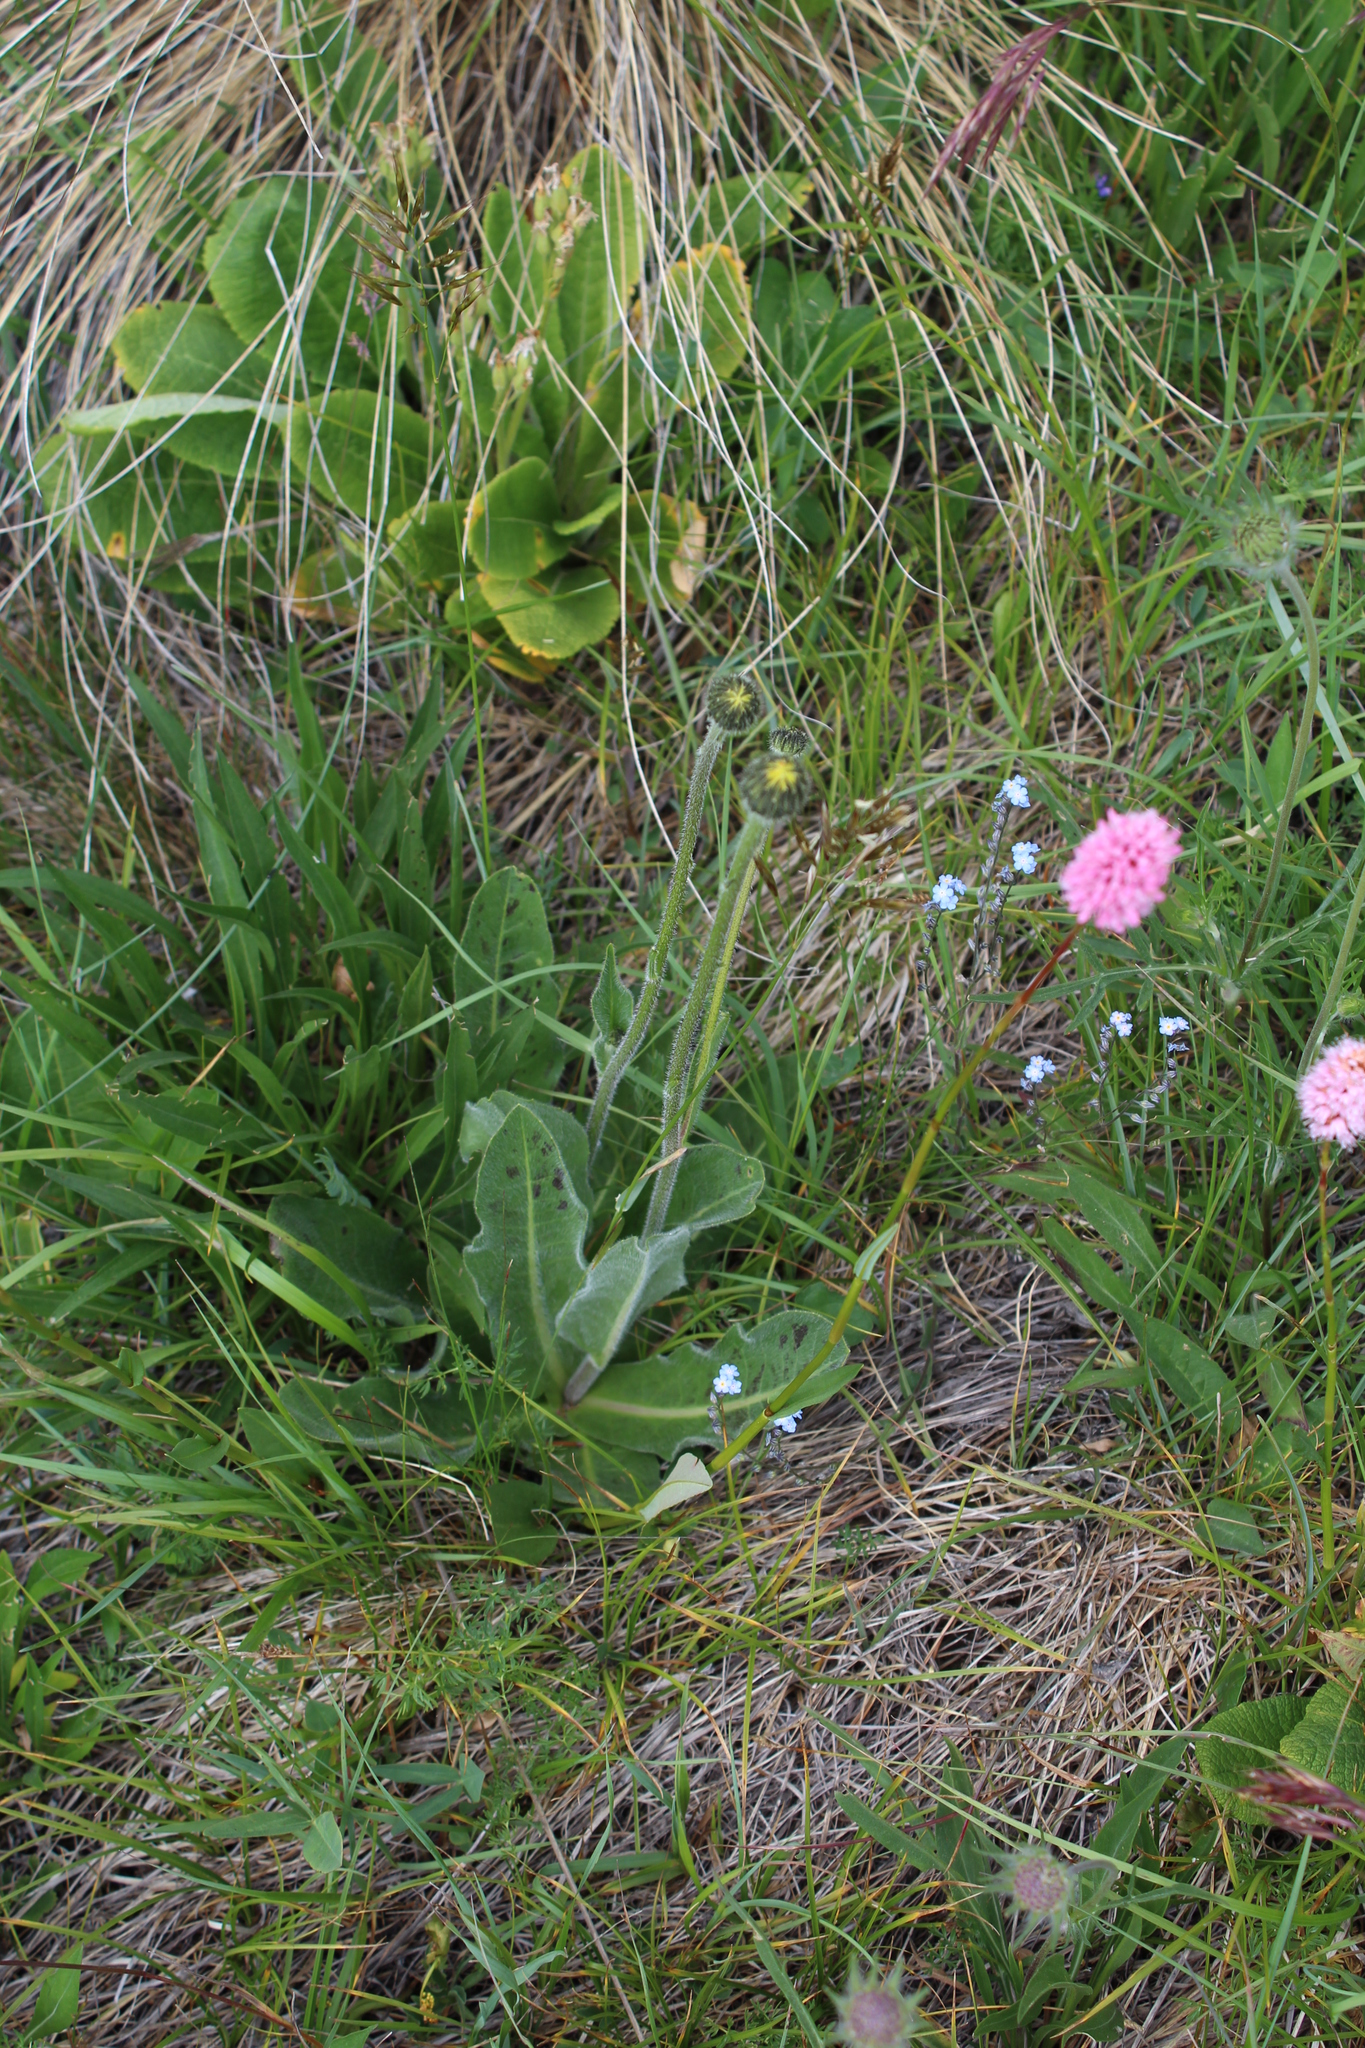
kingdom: Plantae
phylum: Tracheophyta
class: Magnoliopsida
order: Asterales
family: Asteraceae
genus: Trommsdorffia
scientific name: Trommsdorffia maculata
